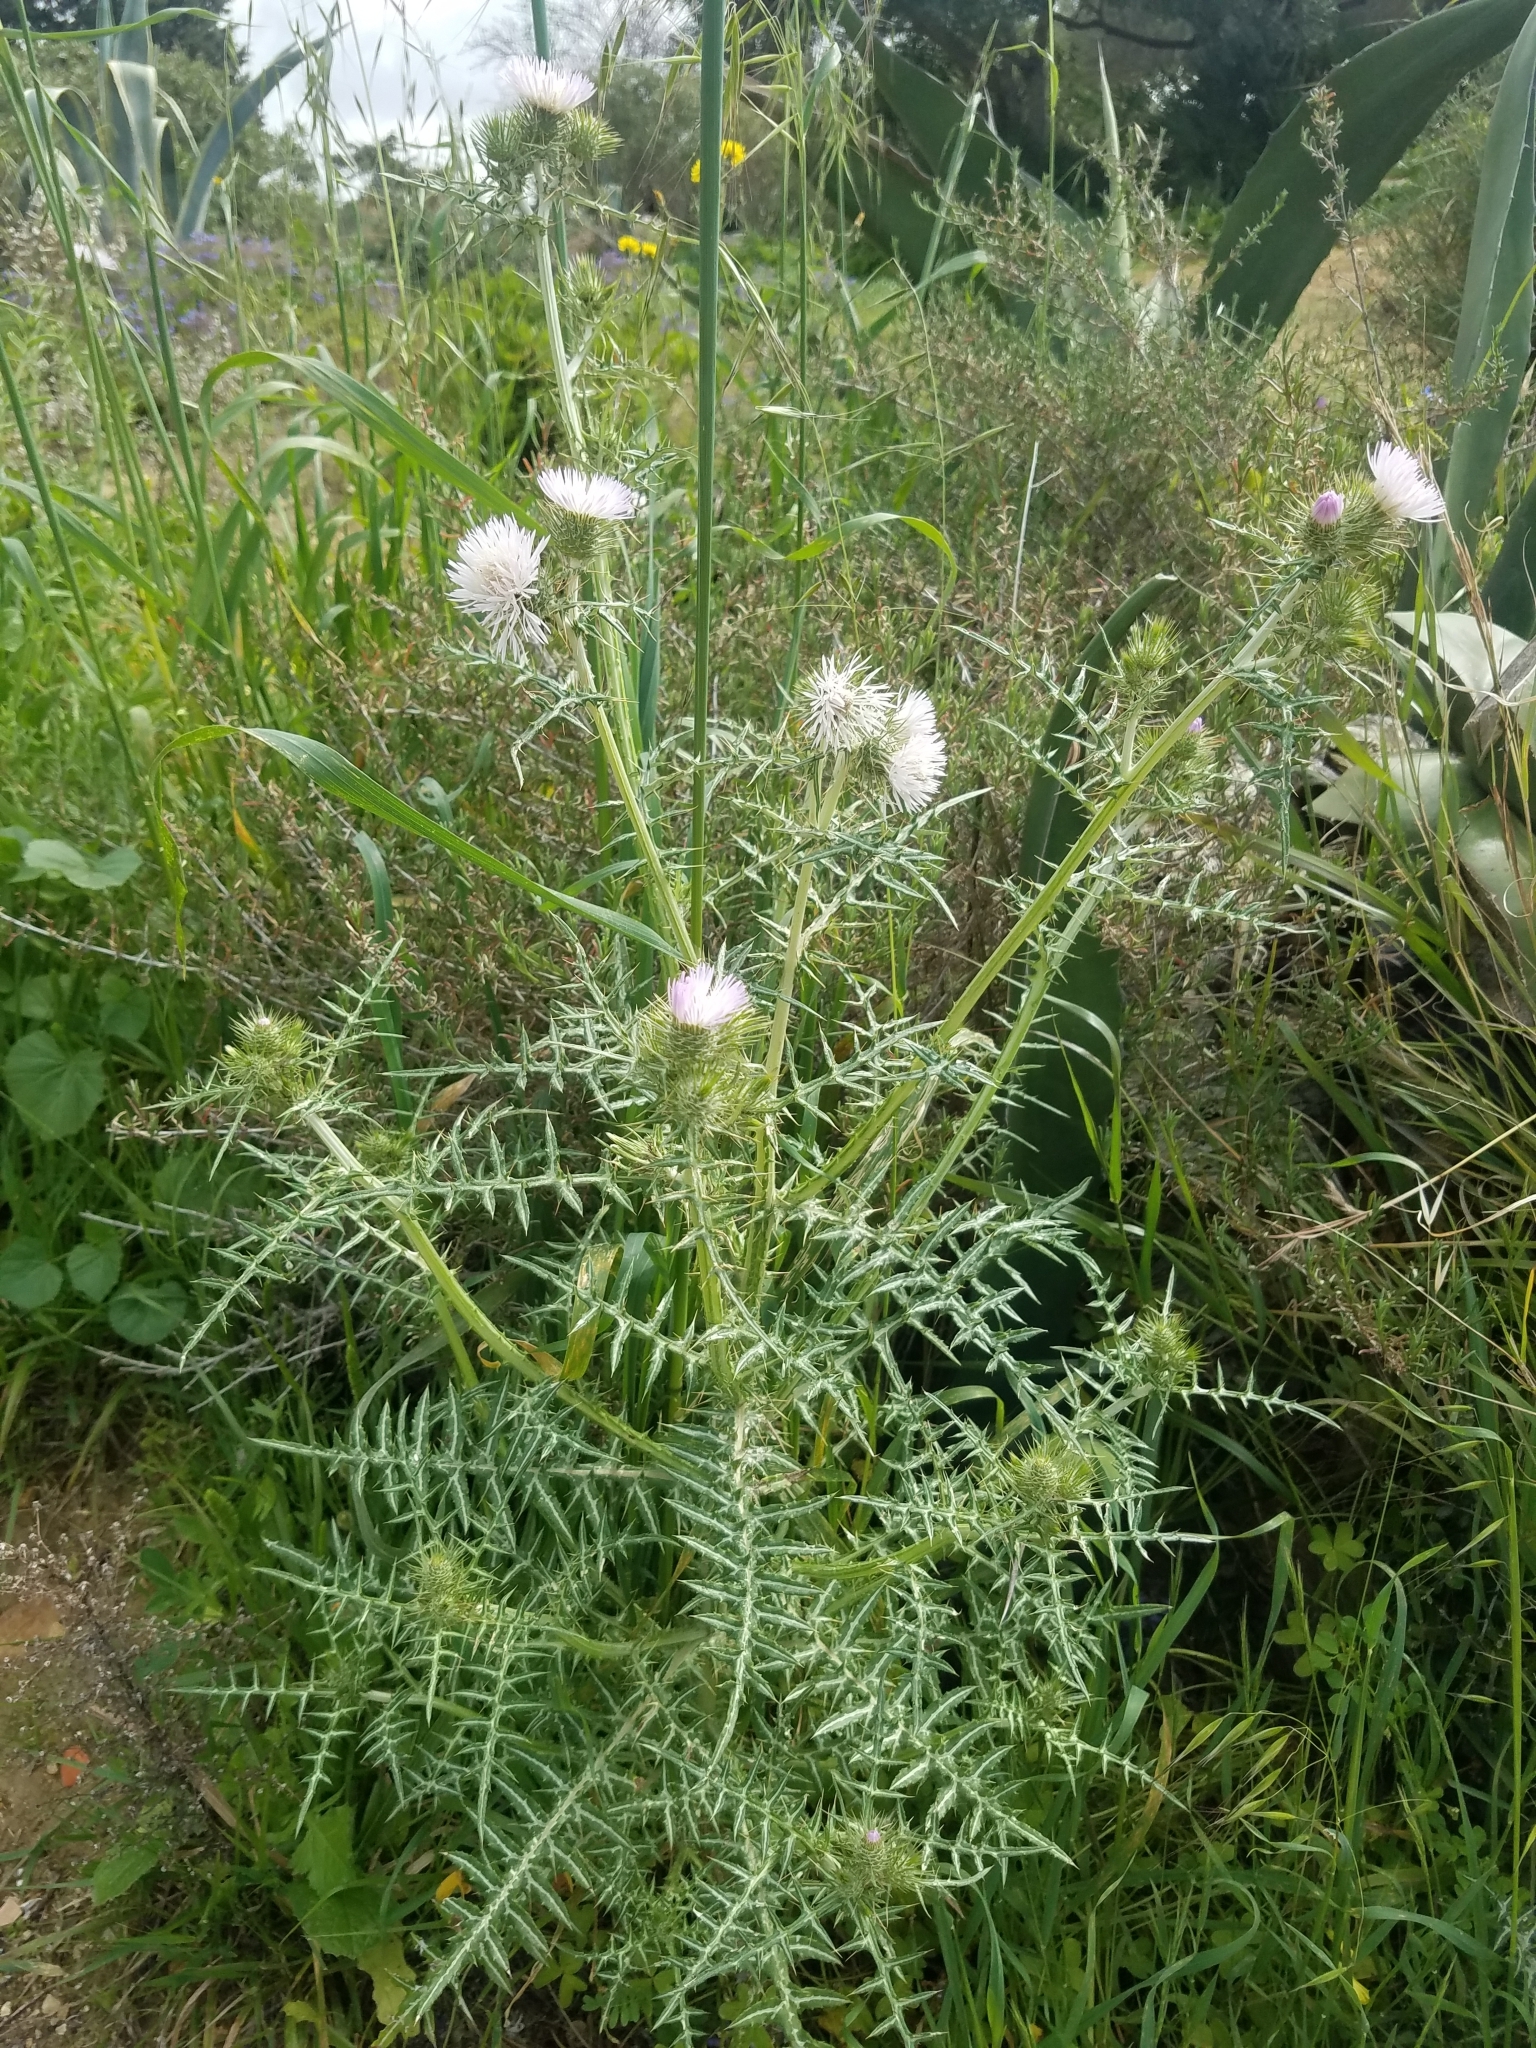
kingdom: Plantae
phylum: Tracheophyta
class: Magnoliopsida
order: Asterales
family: Asteraceae
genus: Galactites
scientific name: Galactites tomentosa
